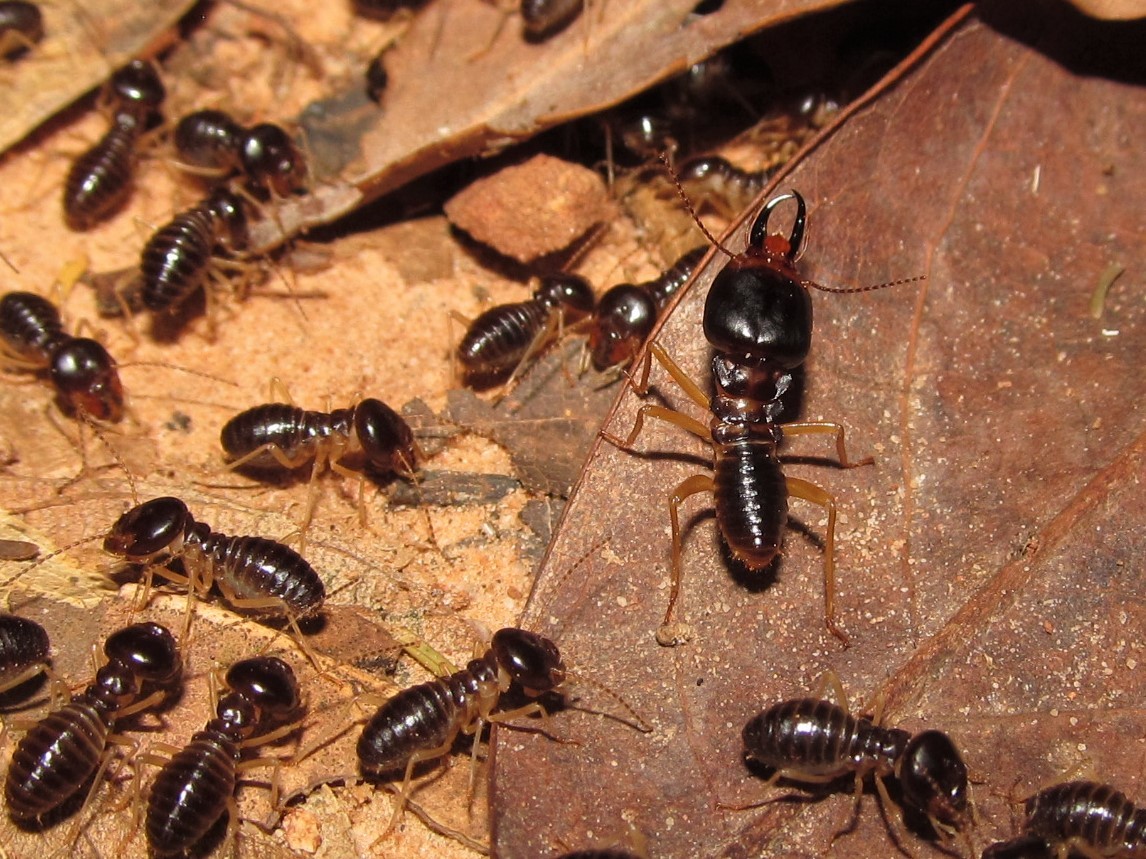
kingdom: Animalia
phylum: Arthropoda
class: Insecta
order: Blattodea
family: Termitidae
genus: Macrotermes
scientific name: Macrotermes carbonarius
